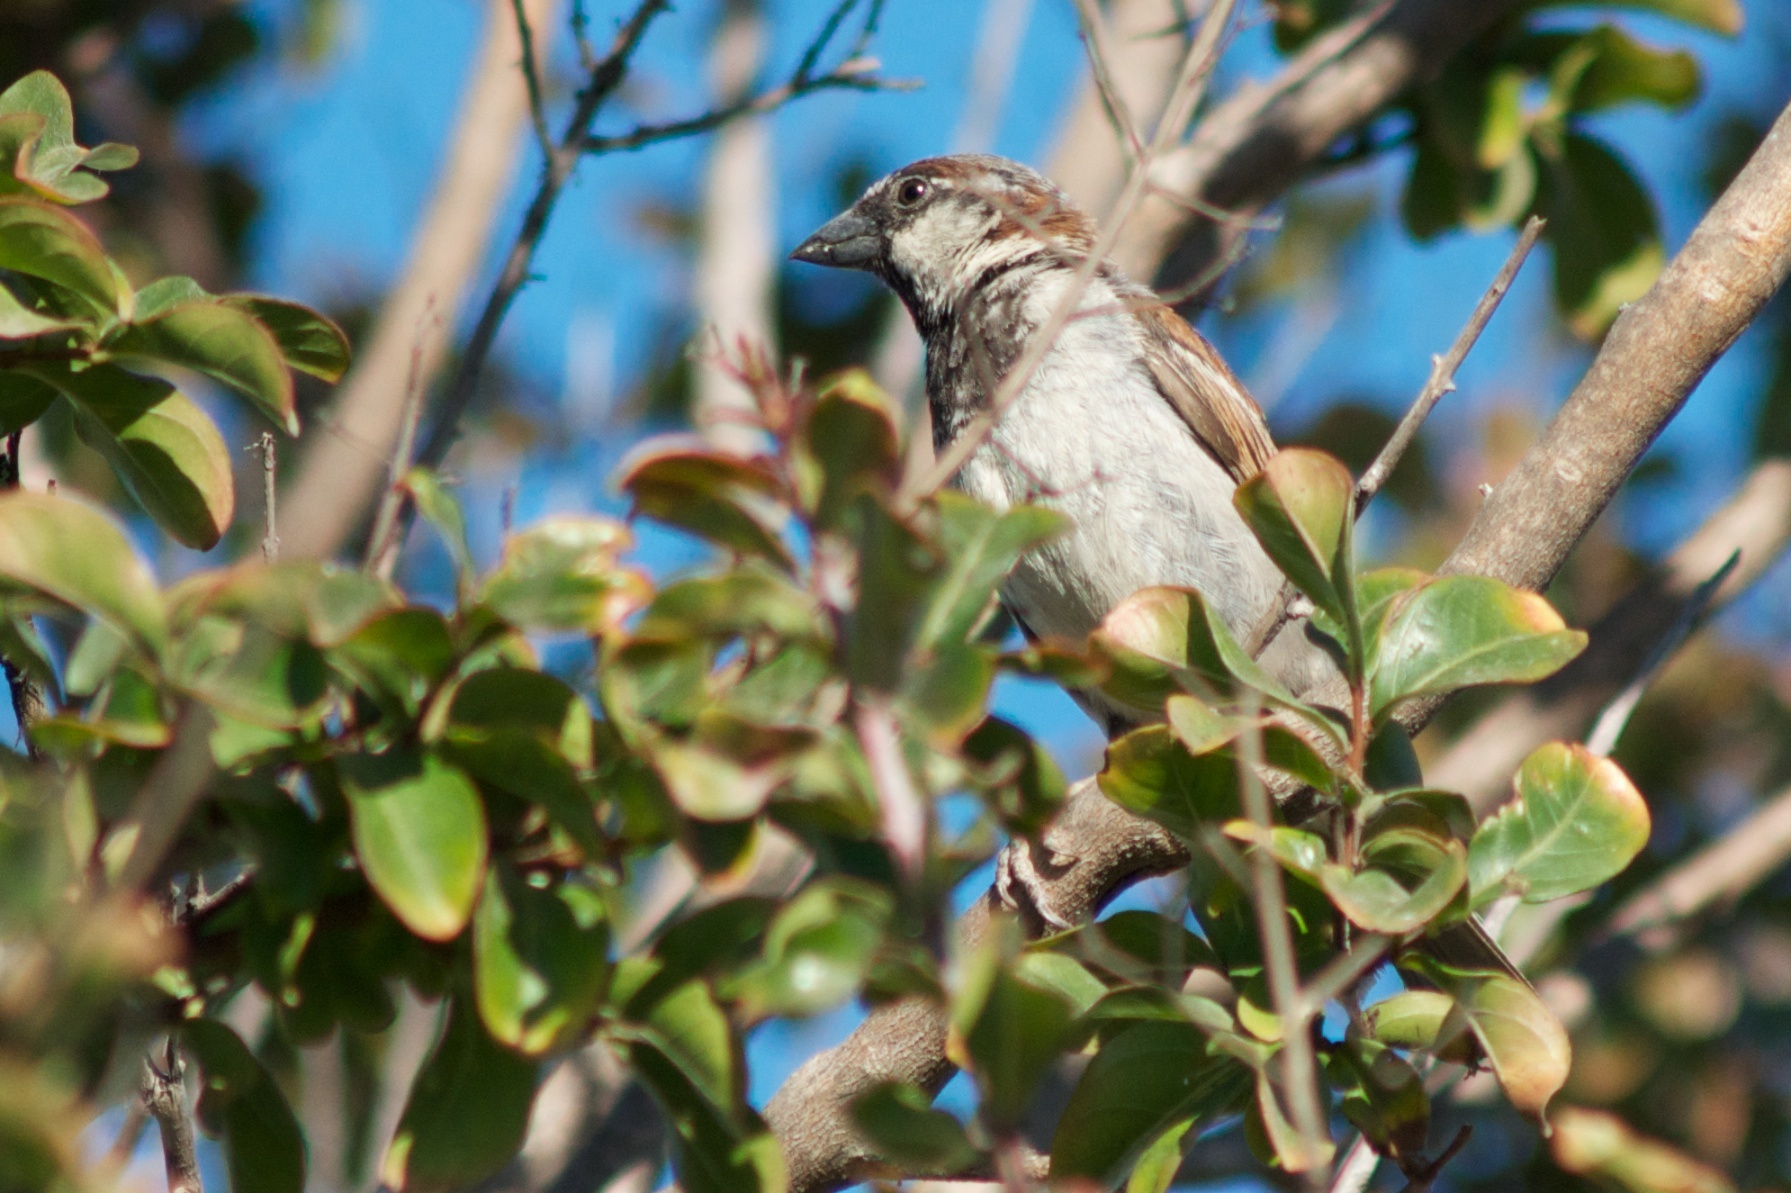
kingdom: Animalia
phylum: Chordata
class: Aves
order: Passeriformes
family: Passeridae
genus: Passer
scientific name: Passer domesticus
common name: House sparrow
